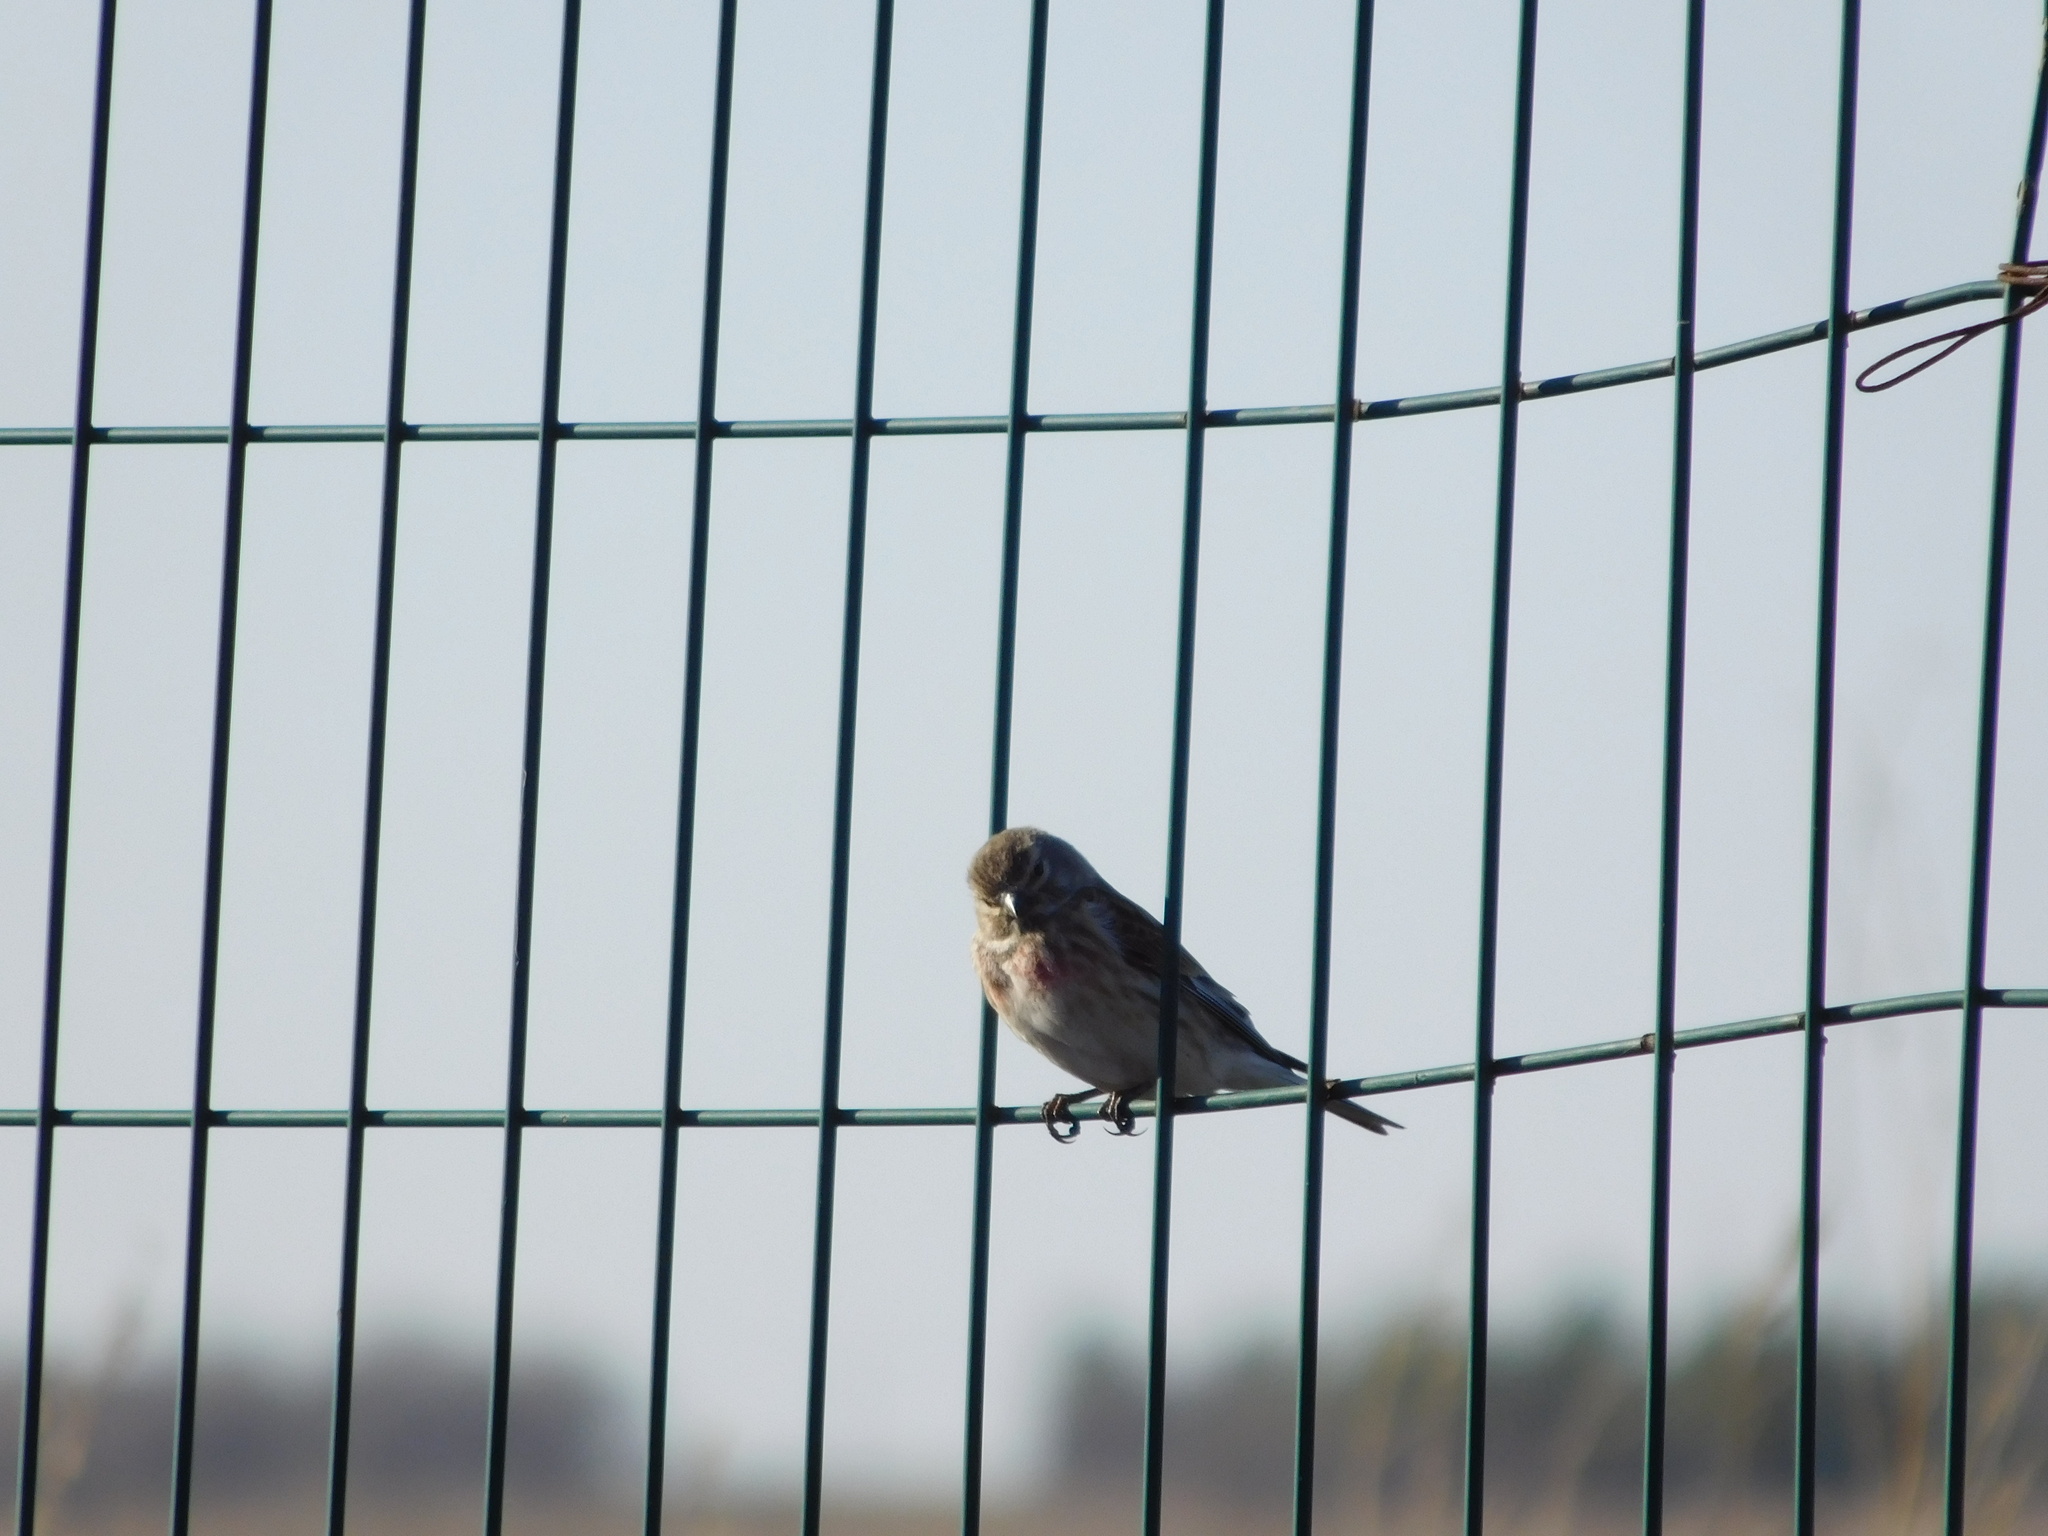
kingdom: Animalia
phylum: Chordata
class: Aves
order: Passeriformes
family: Fringillidae
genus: Linaria
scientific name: Linaria cannabina
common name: Common linnet
